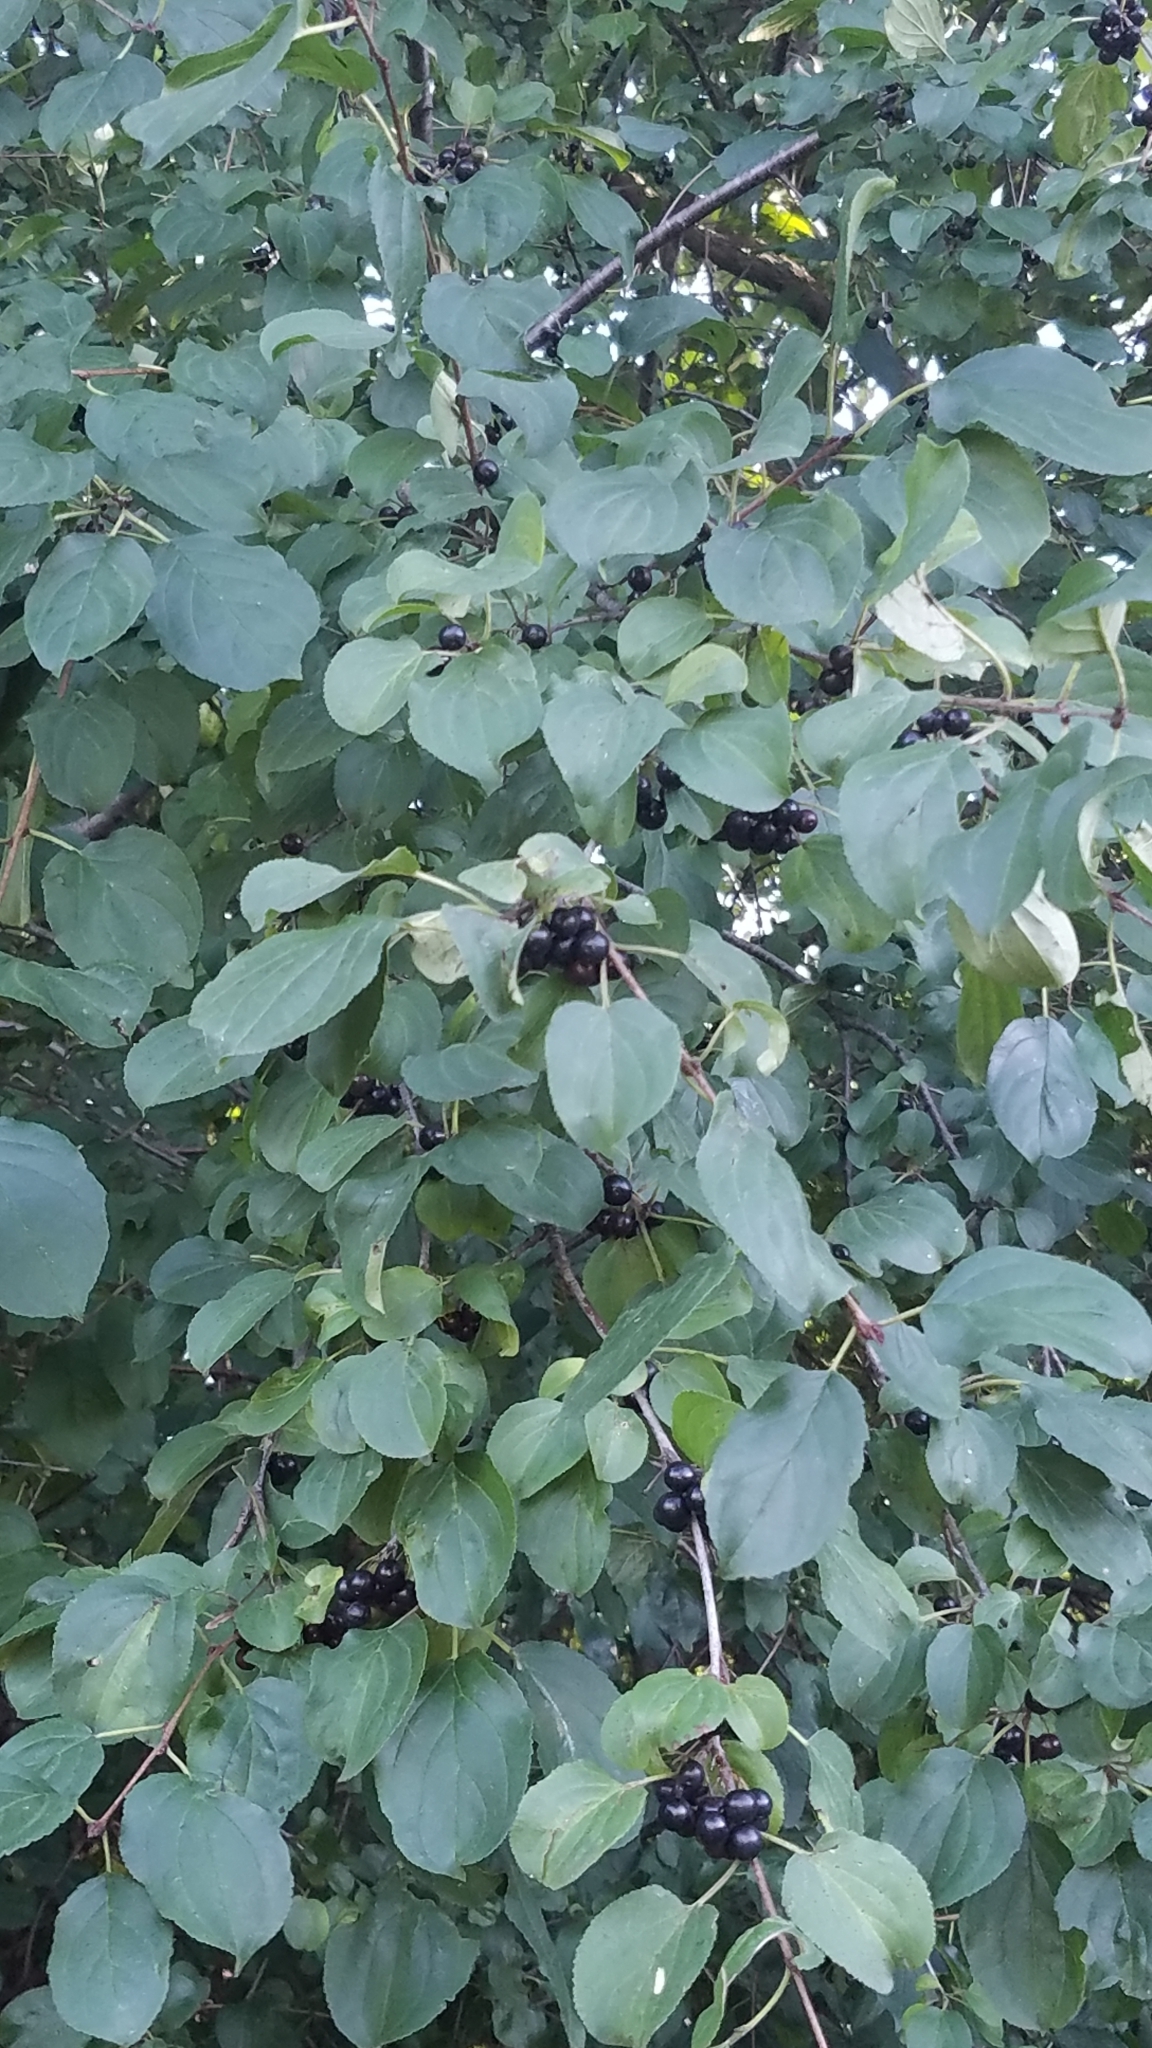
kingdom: Plantae
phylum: Tracheophyta
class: Magnoliopsida
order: Rosales
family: Rhamnaceae
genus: Rhamnus
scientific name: Rhamnus cathartica
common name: Common buckthorn
